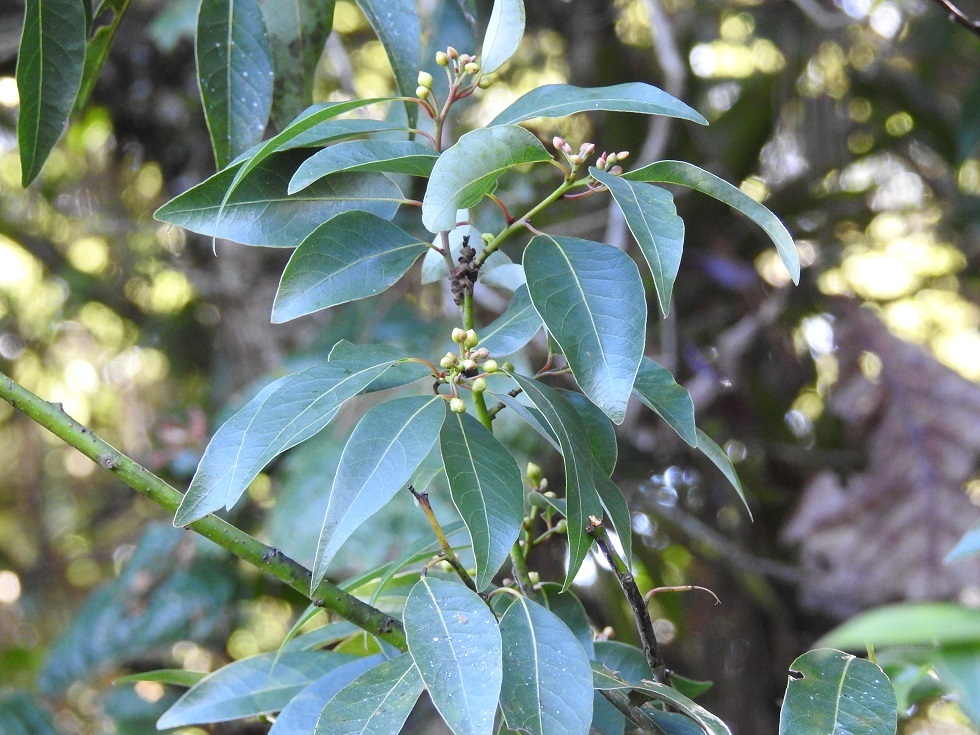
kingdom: Plantae
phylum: Tracheophyta
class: Magnoliopsida
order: Laurales
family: Lauraceae
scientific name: Lauraceae
